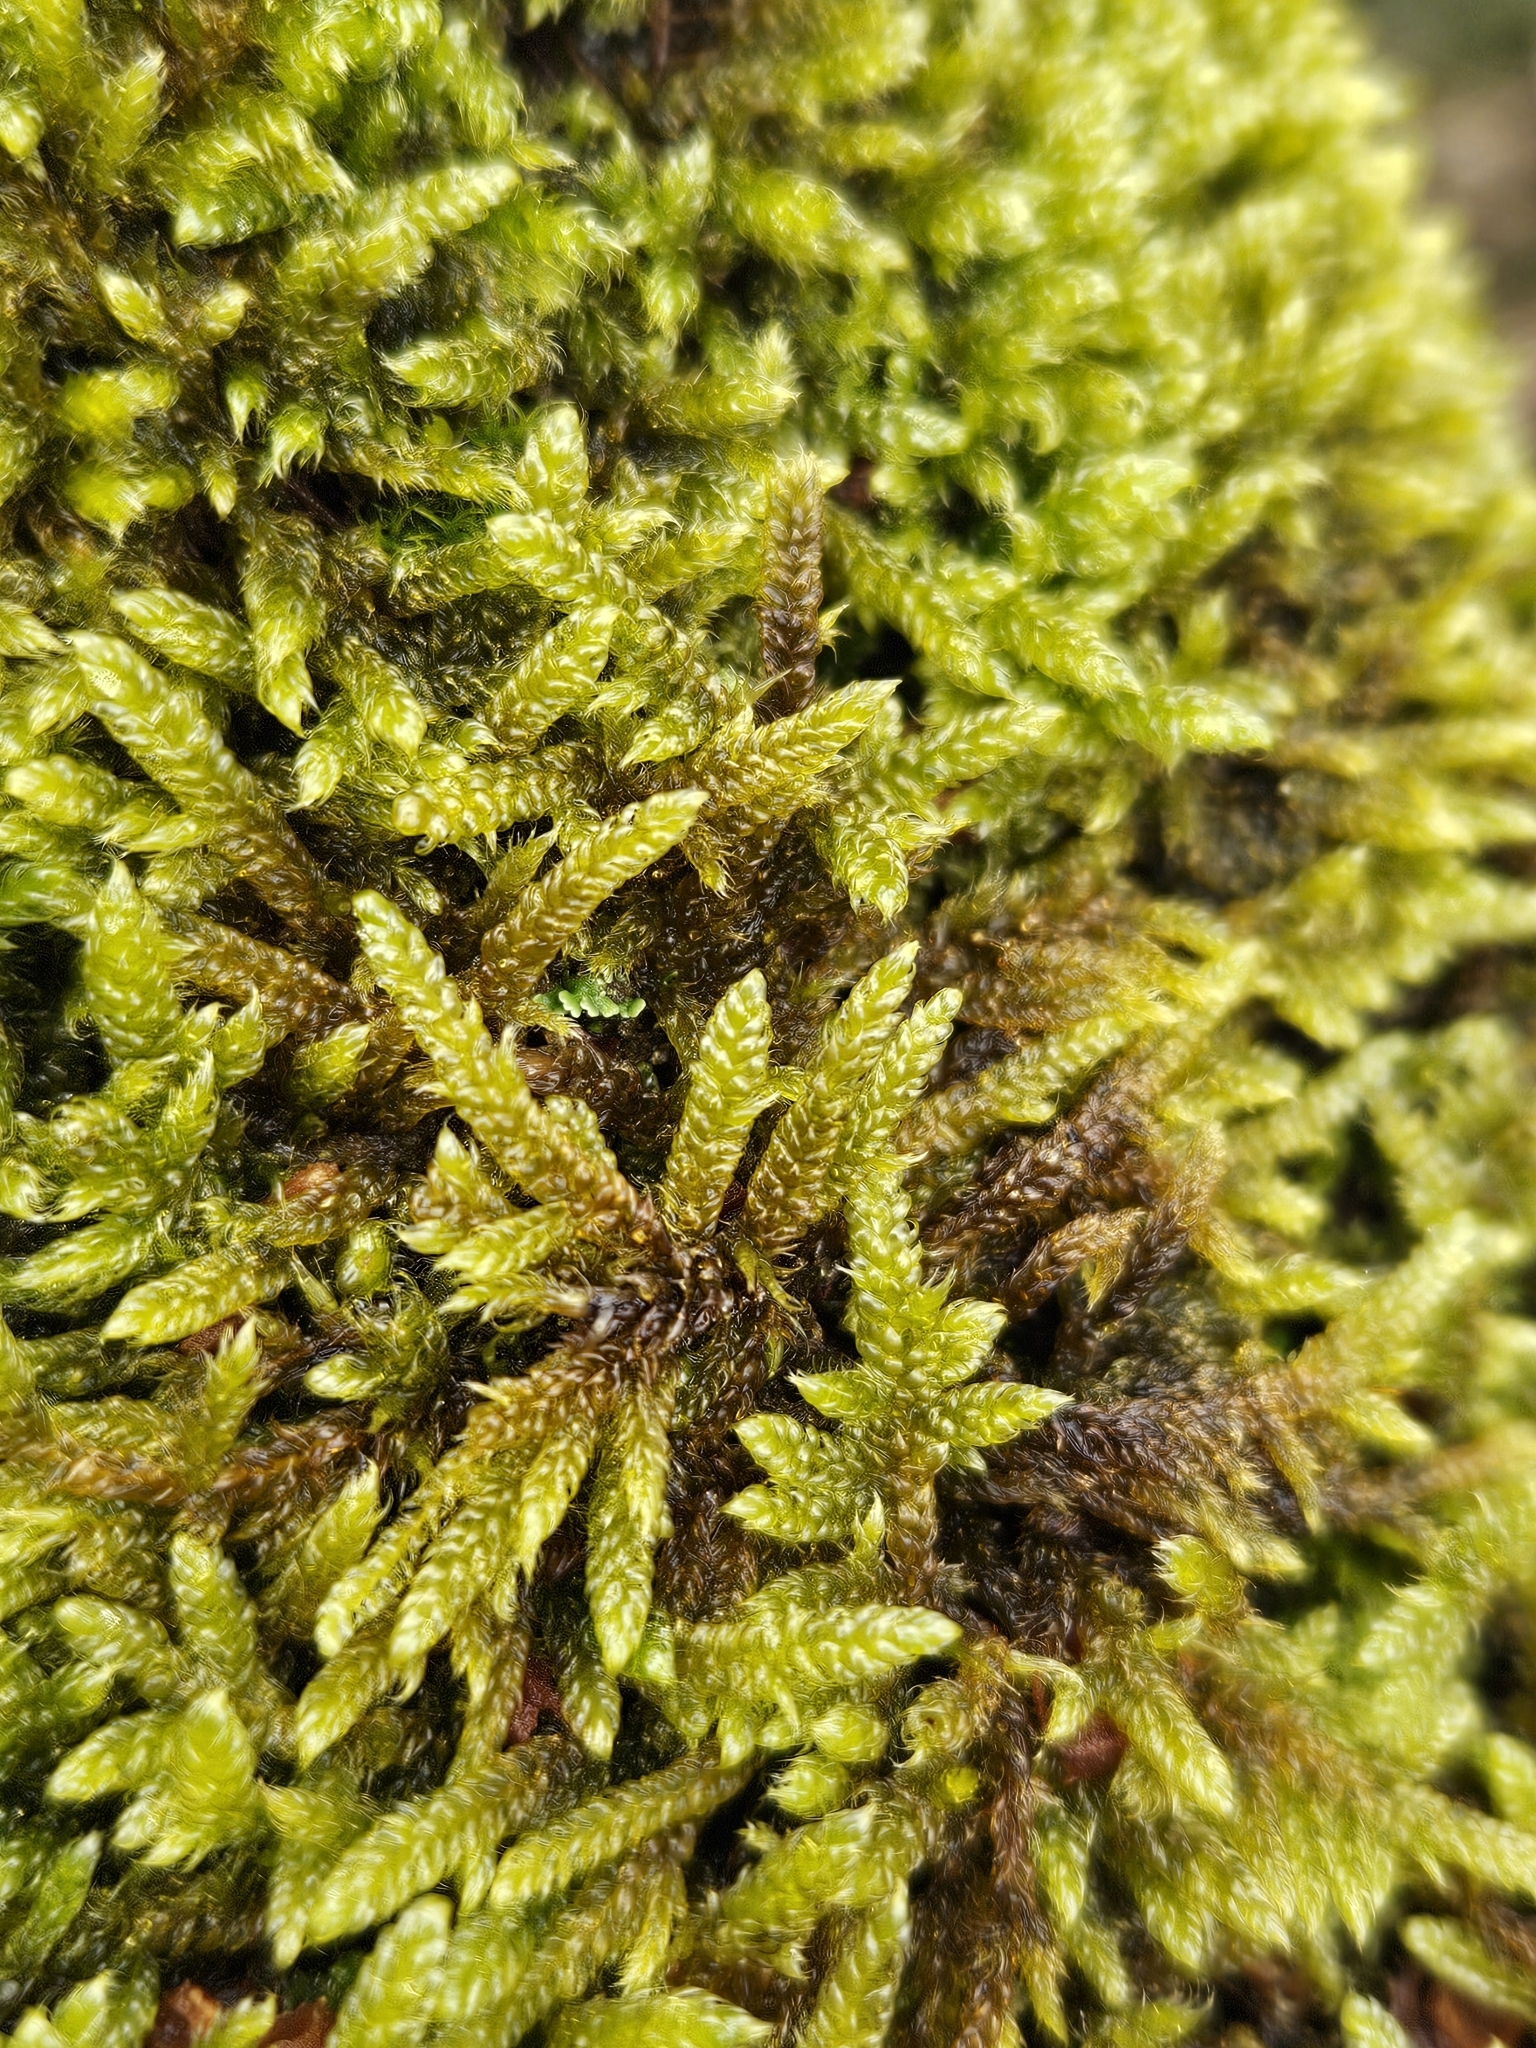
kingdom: Plantae
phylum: Bryophyta
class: Bryopsida
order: Hypnales
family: Hypnaceae
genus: Hypnum
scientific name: Hypnum cupressiforme
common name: Cypress-leaved plait-moss
